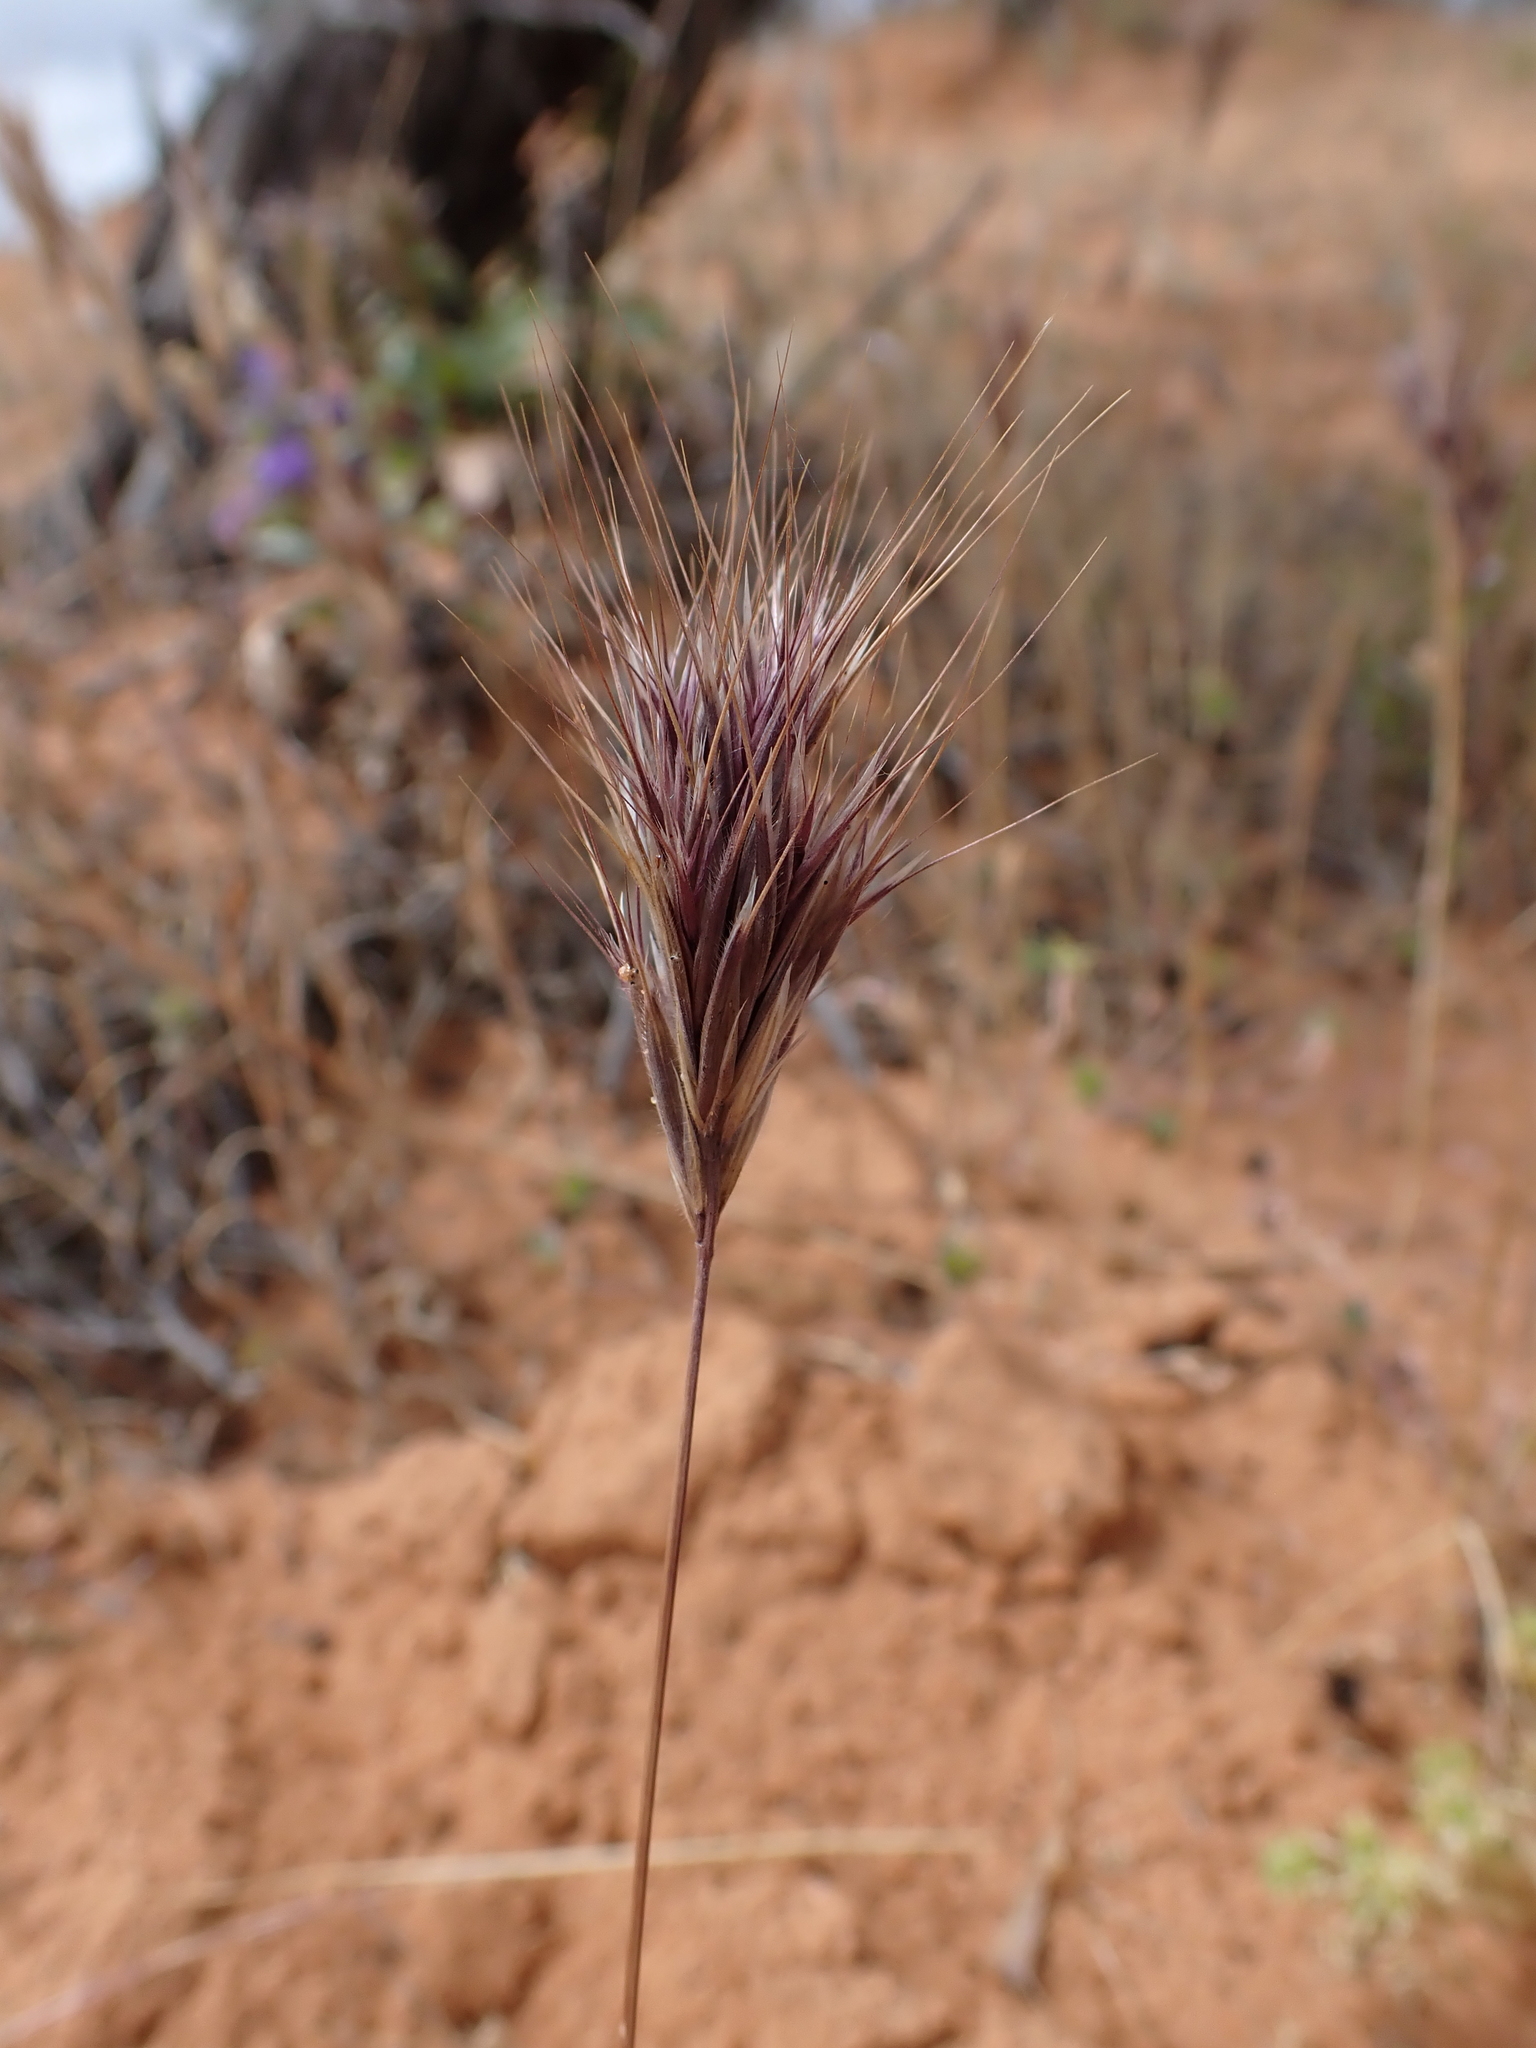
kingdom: Plantae
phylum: Tracheophyta
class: Liliopsida
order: Poales
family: Poaceae
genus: Bromus
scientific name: Bromus rubens
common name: Red brome
